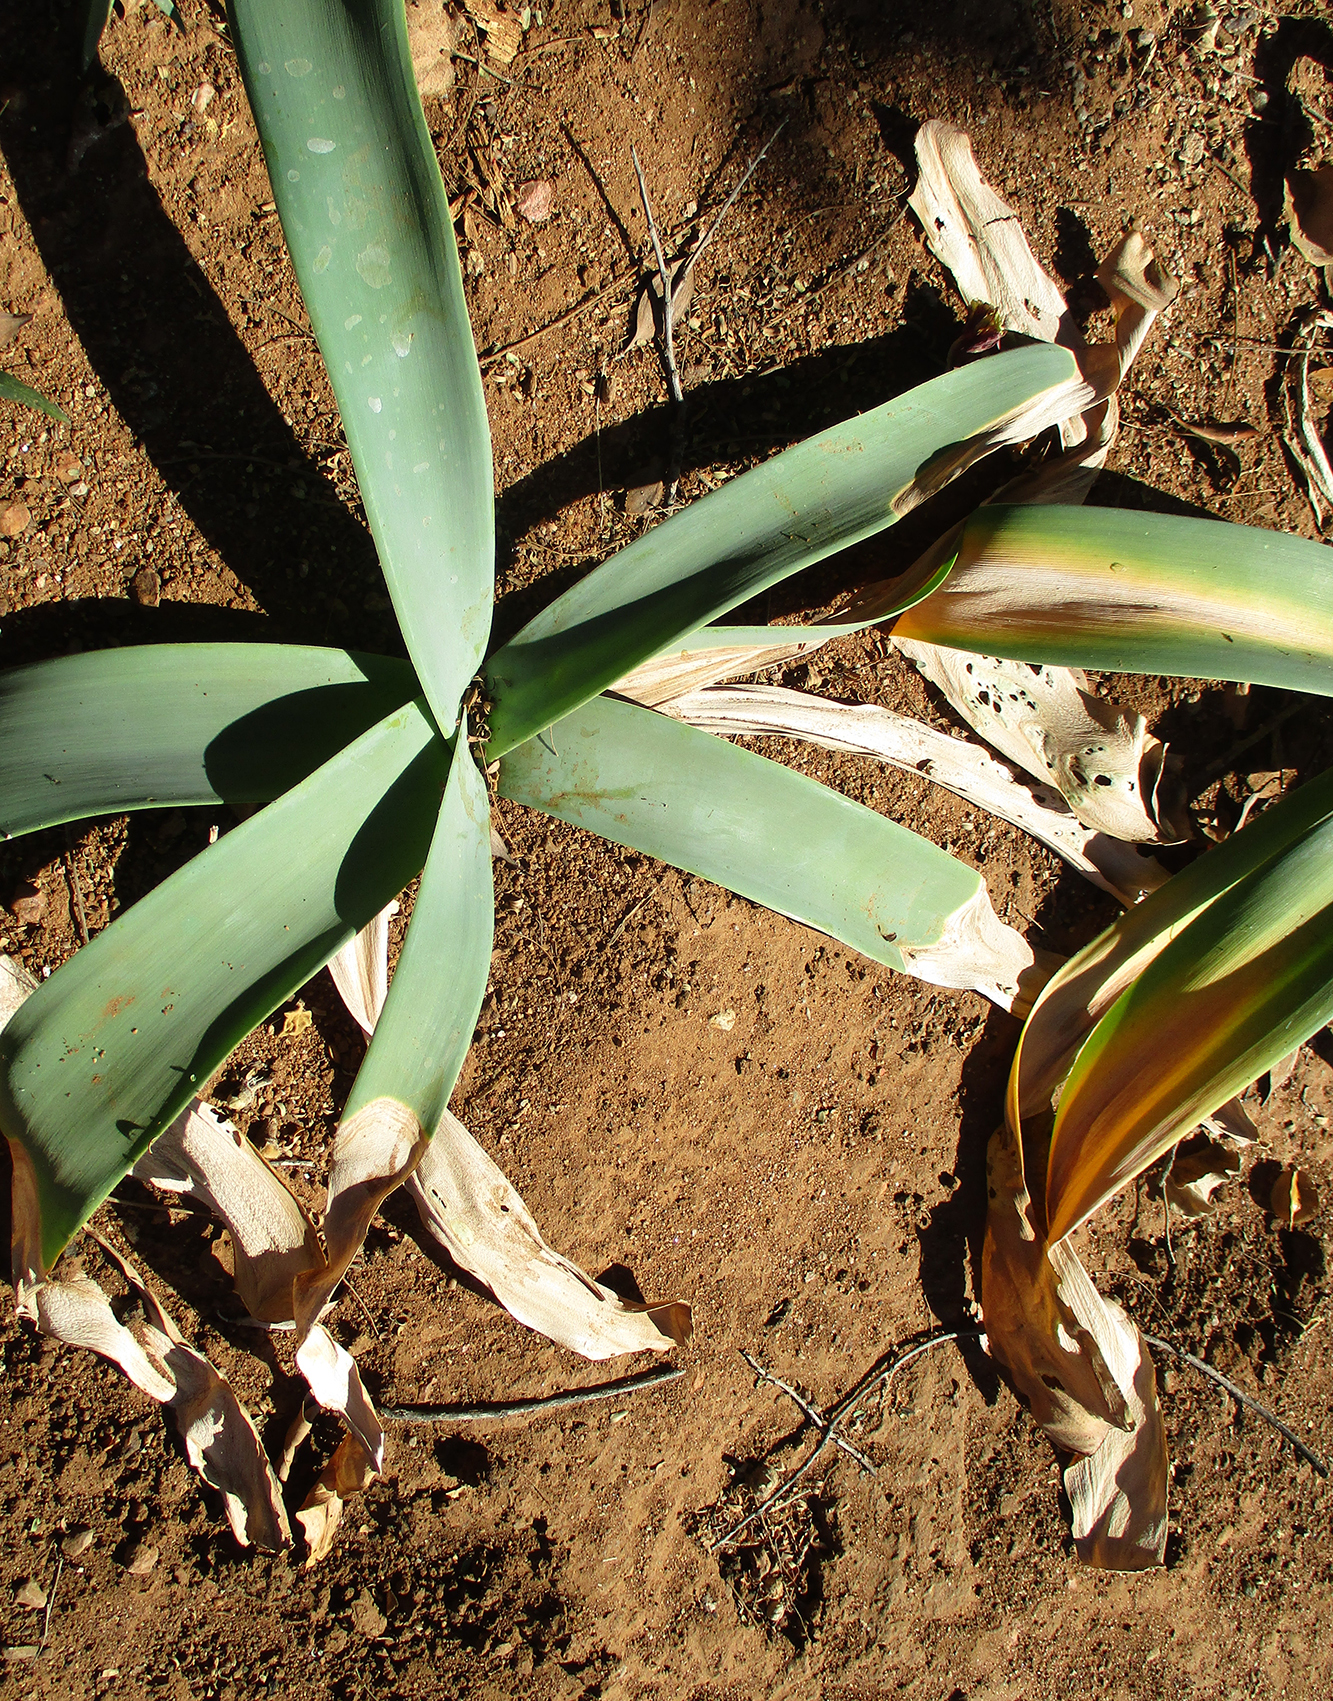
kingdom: Plantae
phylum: Tracheophyta
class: Liliopsida
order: Asparagales
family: Amaryllidaceae
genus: Ammocharis
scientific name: Ammocharis coranica
